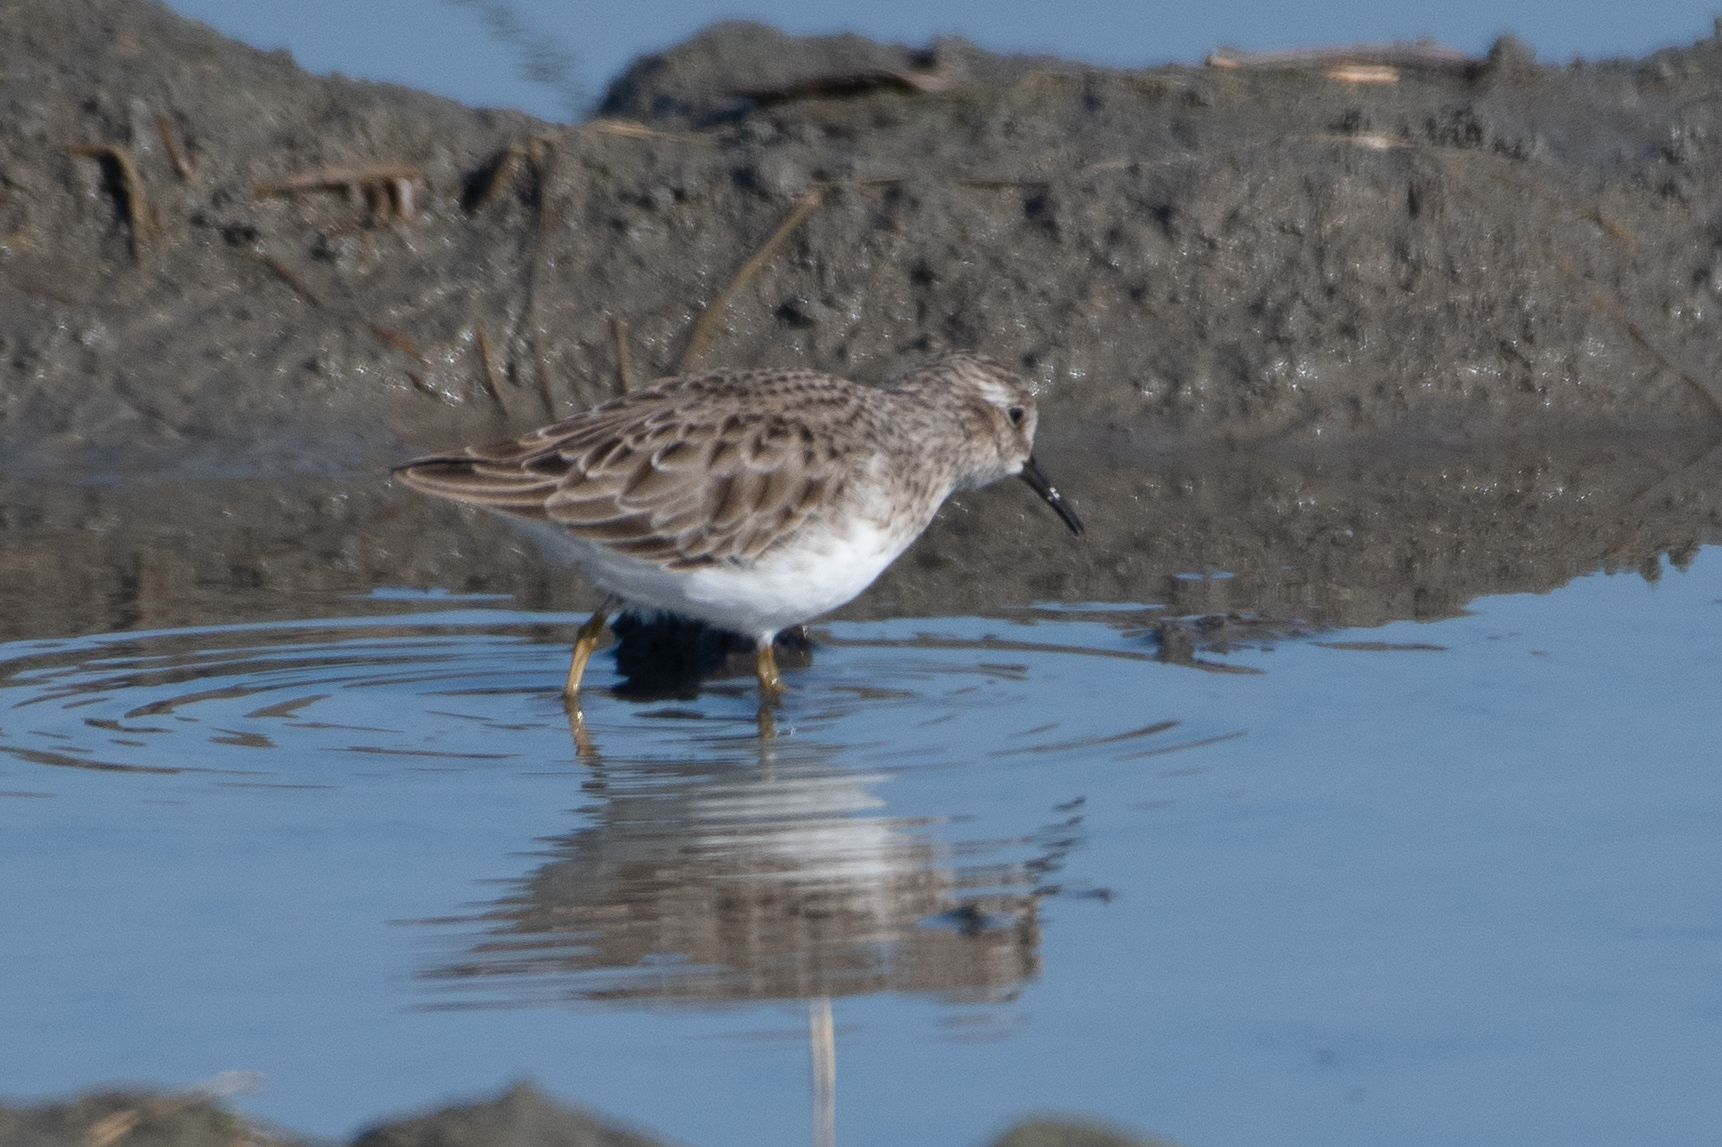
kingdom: Animalia
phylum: Chordata
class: Aves
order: Charadriiformes
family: Scolopacidae
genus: Calidris
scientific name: Calidris minutilla
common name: Least sandpiper
